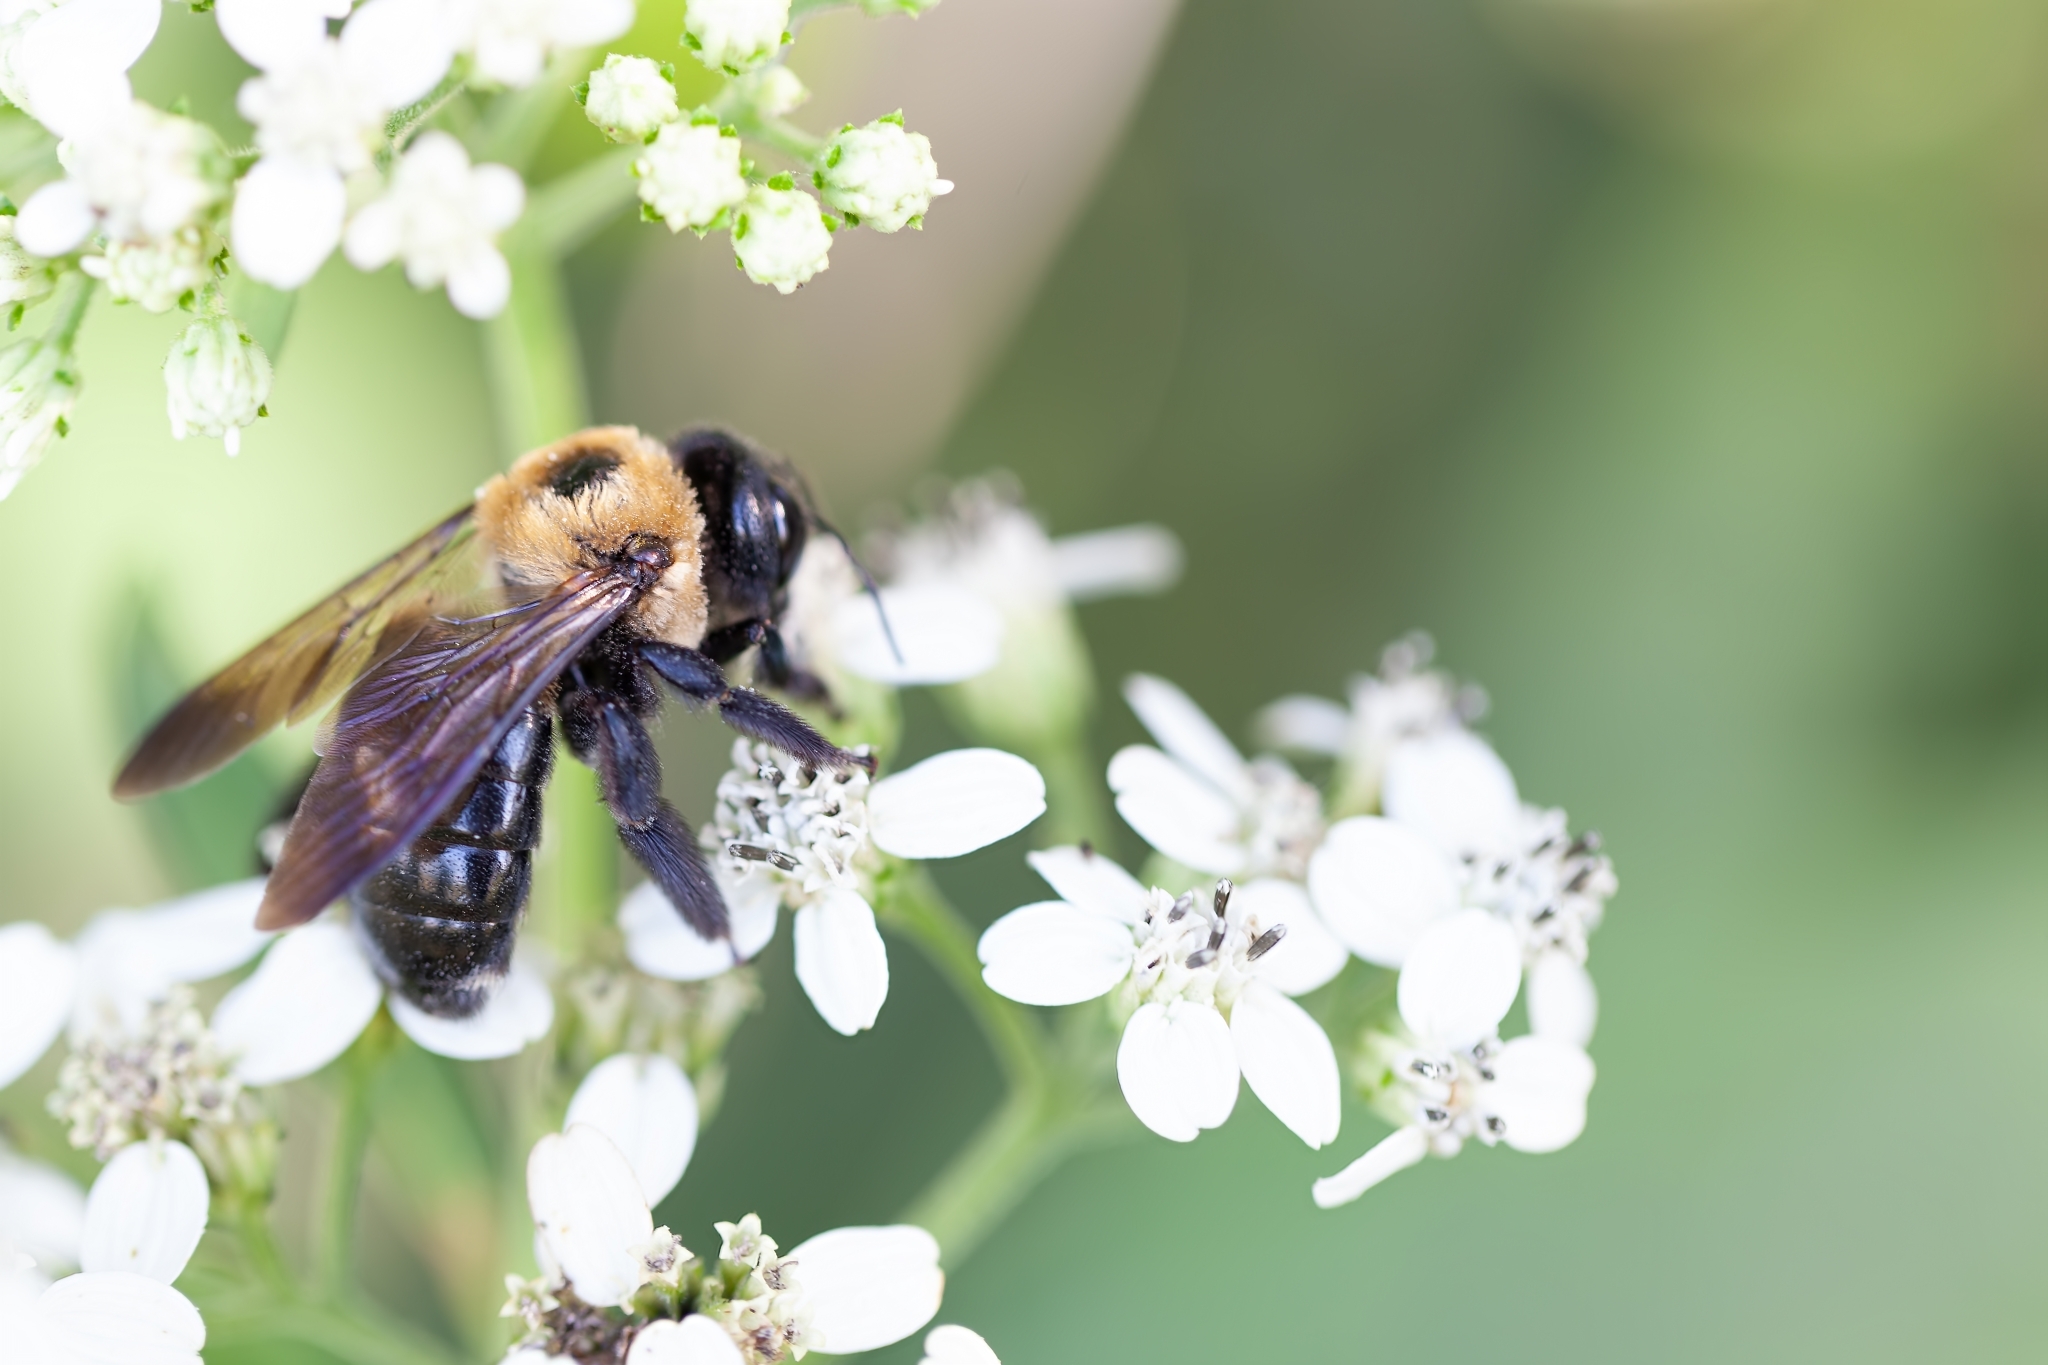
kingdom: Animalia
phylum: Arthropoda
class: Insecta
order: Hymenoptera
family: Apidae
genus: Xylocopa
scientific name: Xylocopa virginica
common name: Carpenter bee
